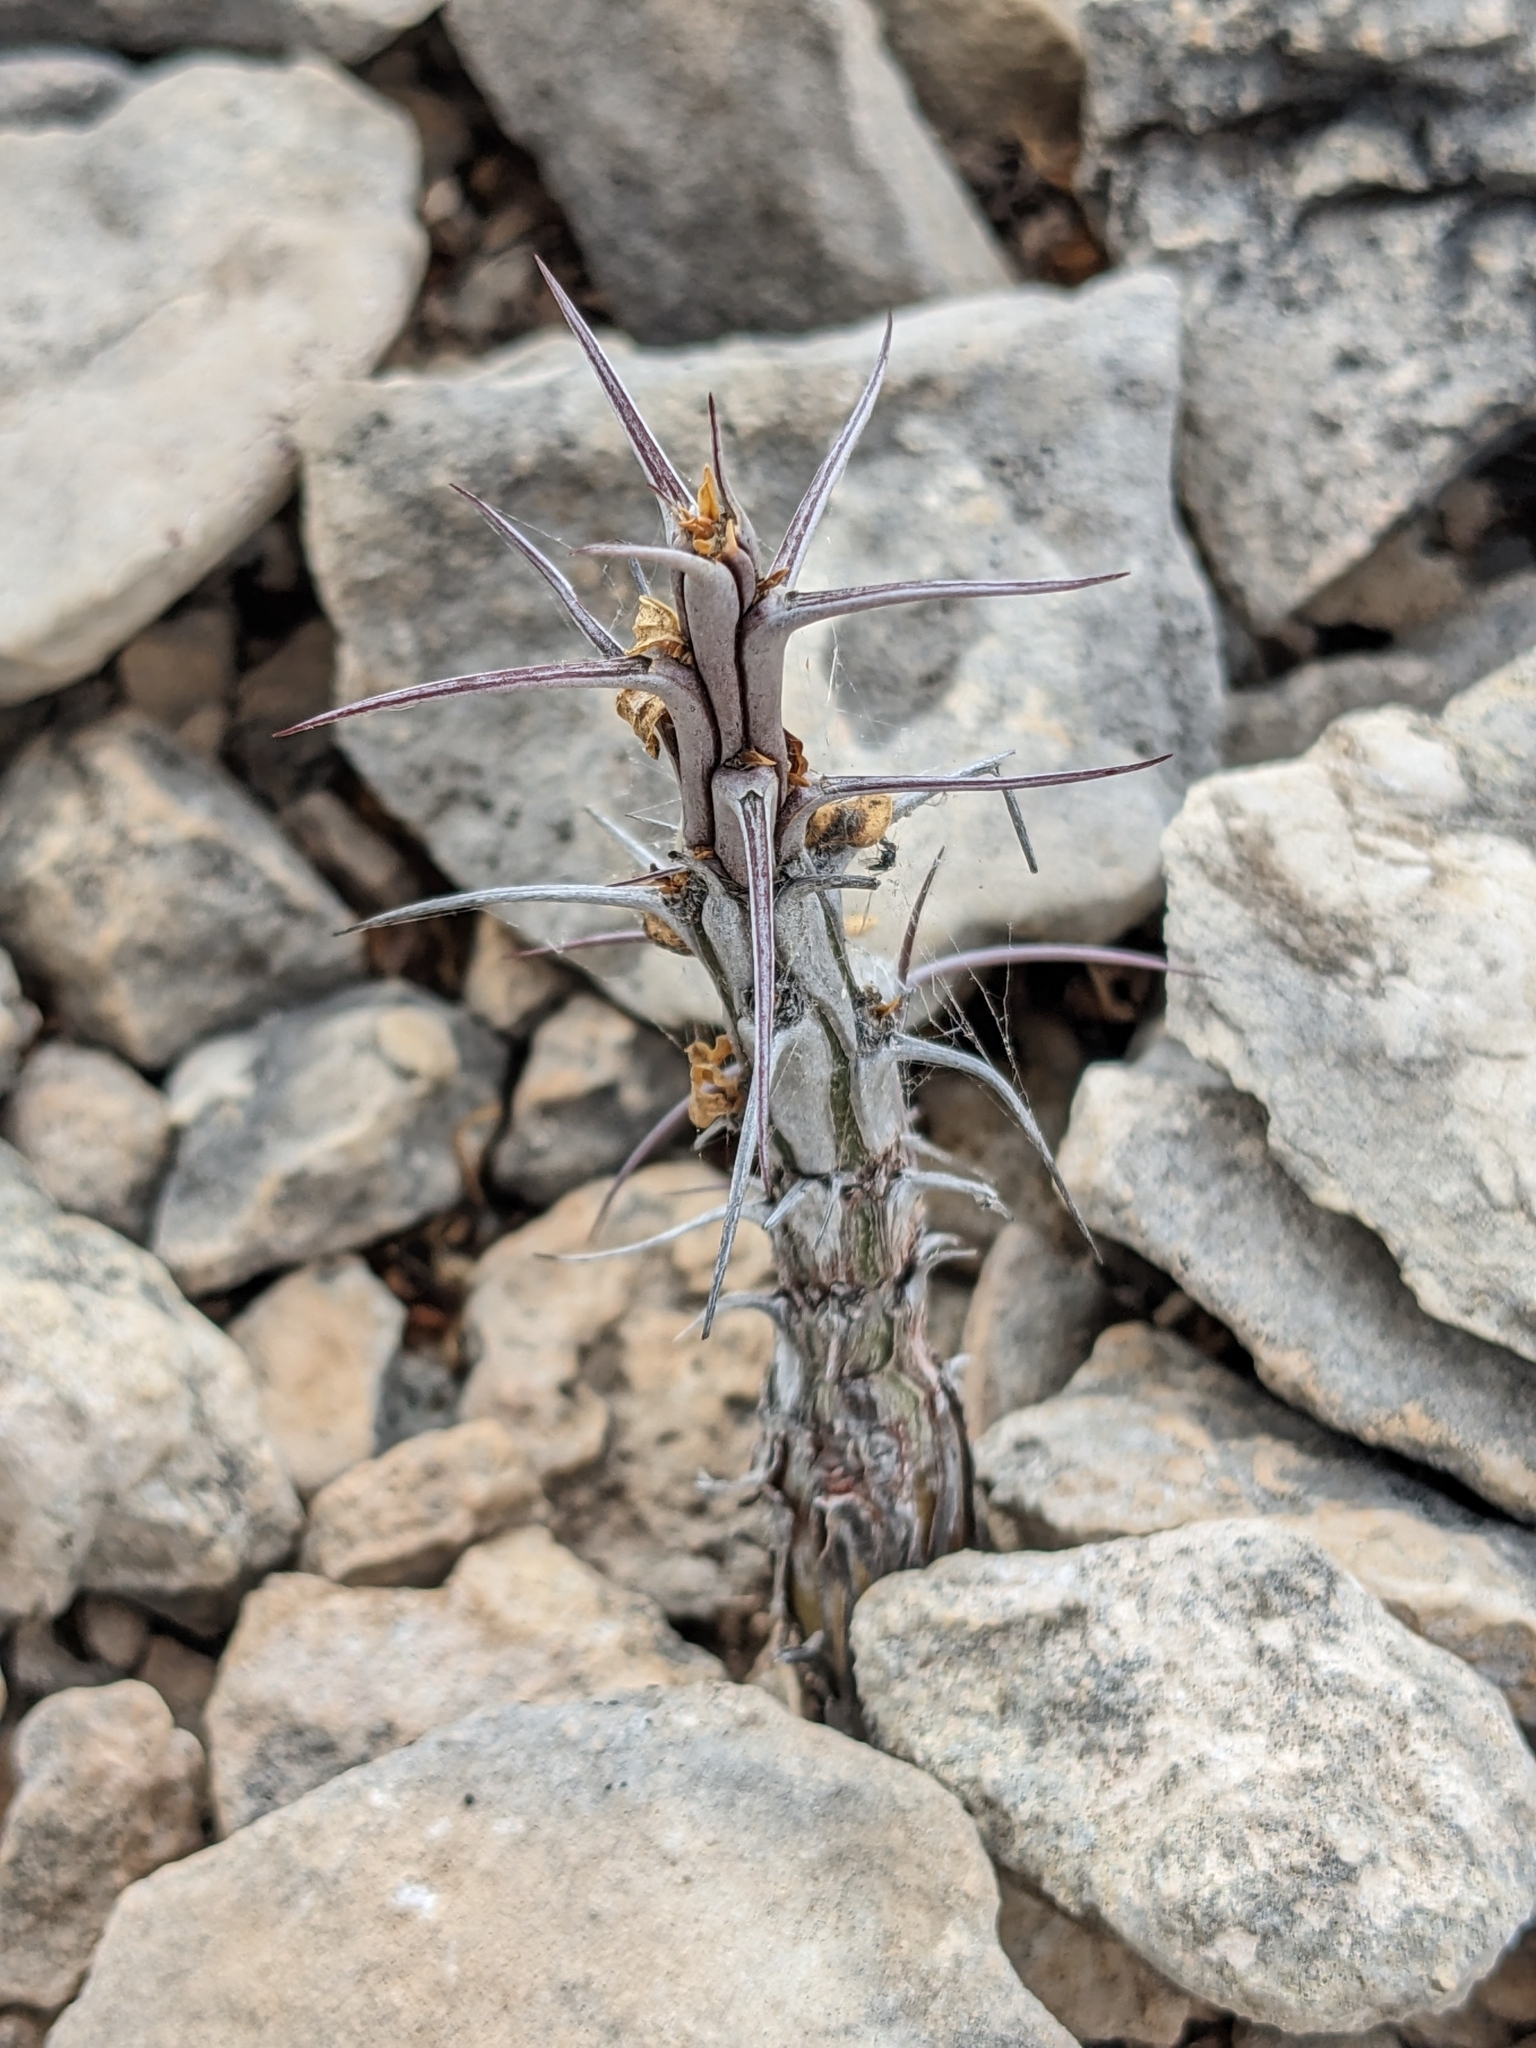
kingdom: Plantae
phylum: Tracheophyta
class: Magnoliopsida
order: Ericales
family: Fouquieriaceae
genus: Fouquieria
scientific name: Fouquieria splendens
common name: Vine-cactus
